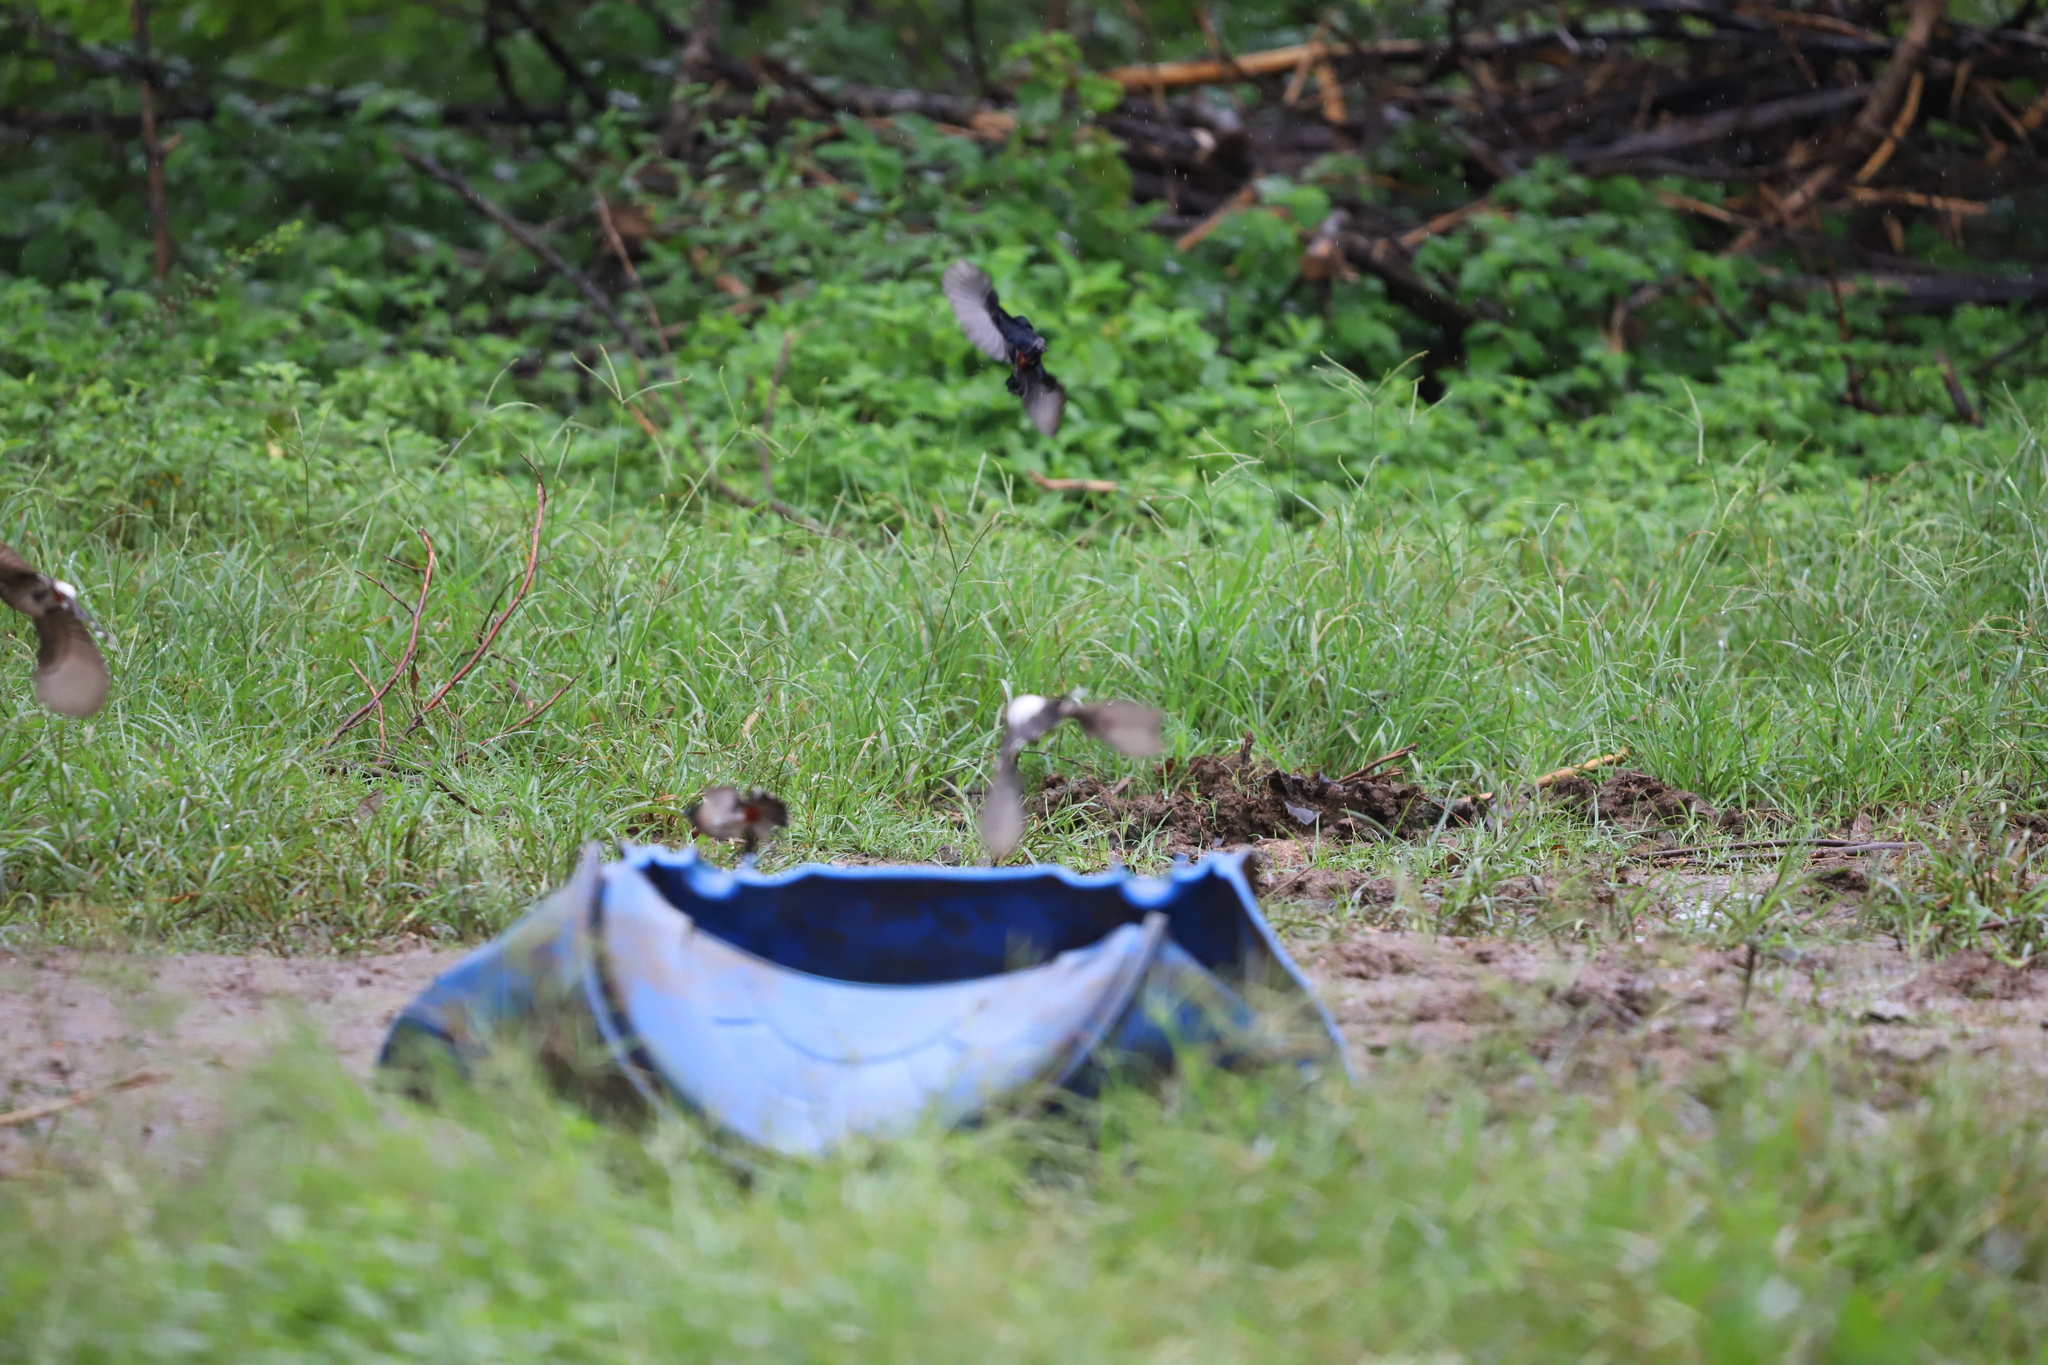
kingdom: Animalia
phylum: Chordata
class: Aves
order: Passeriformes
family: Muscicapidae
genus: Saxicoloides
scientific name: Saxicoloides fulicatus
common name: Indian robin
